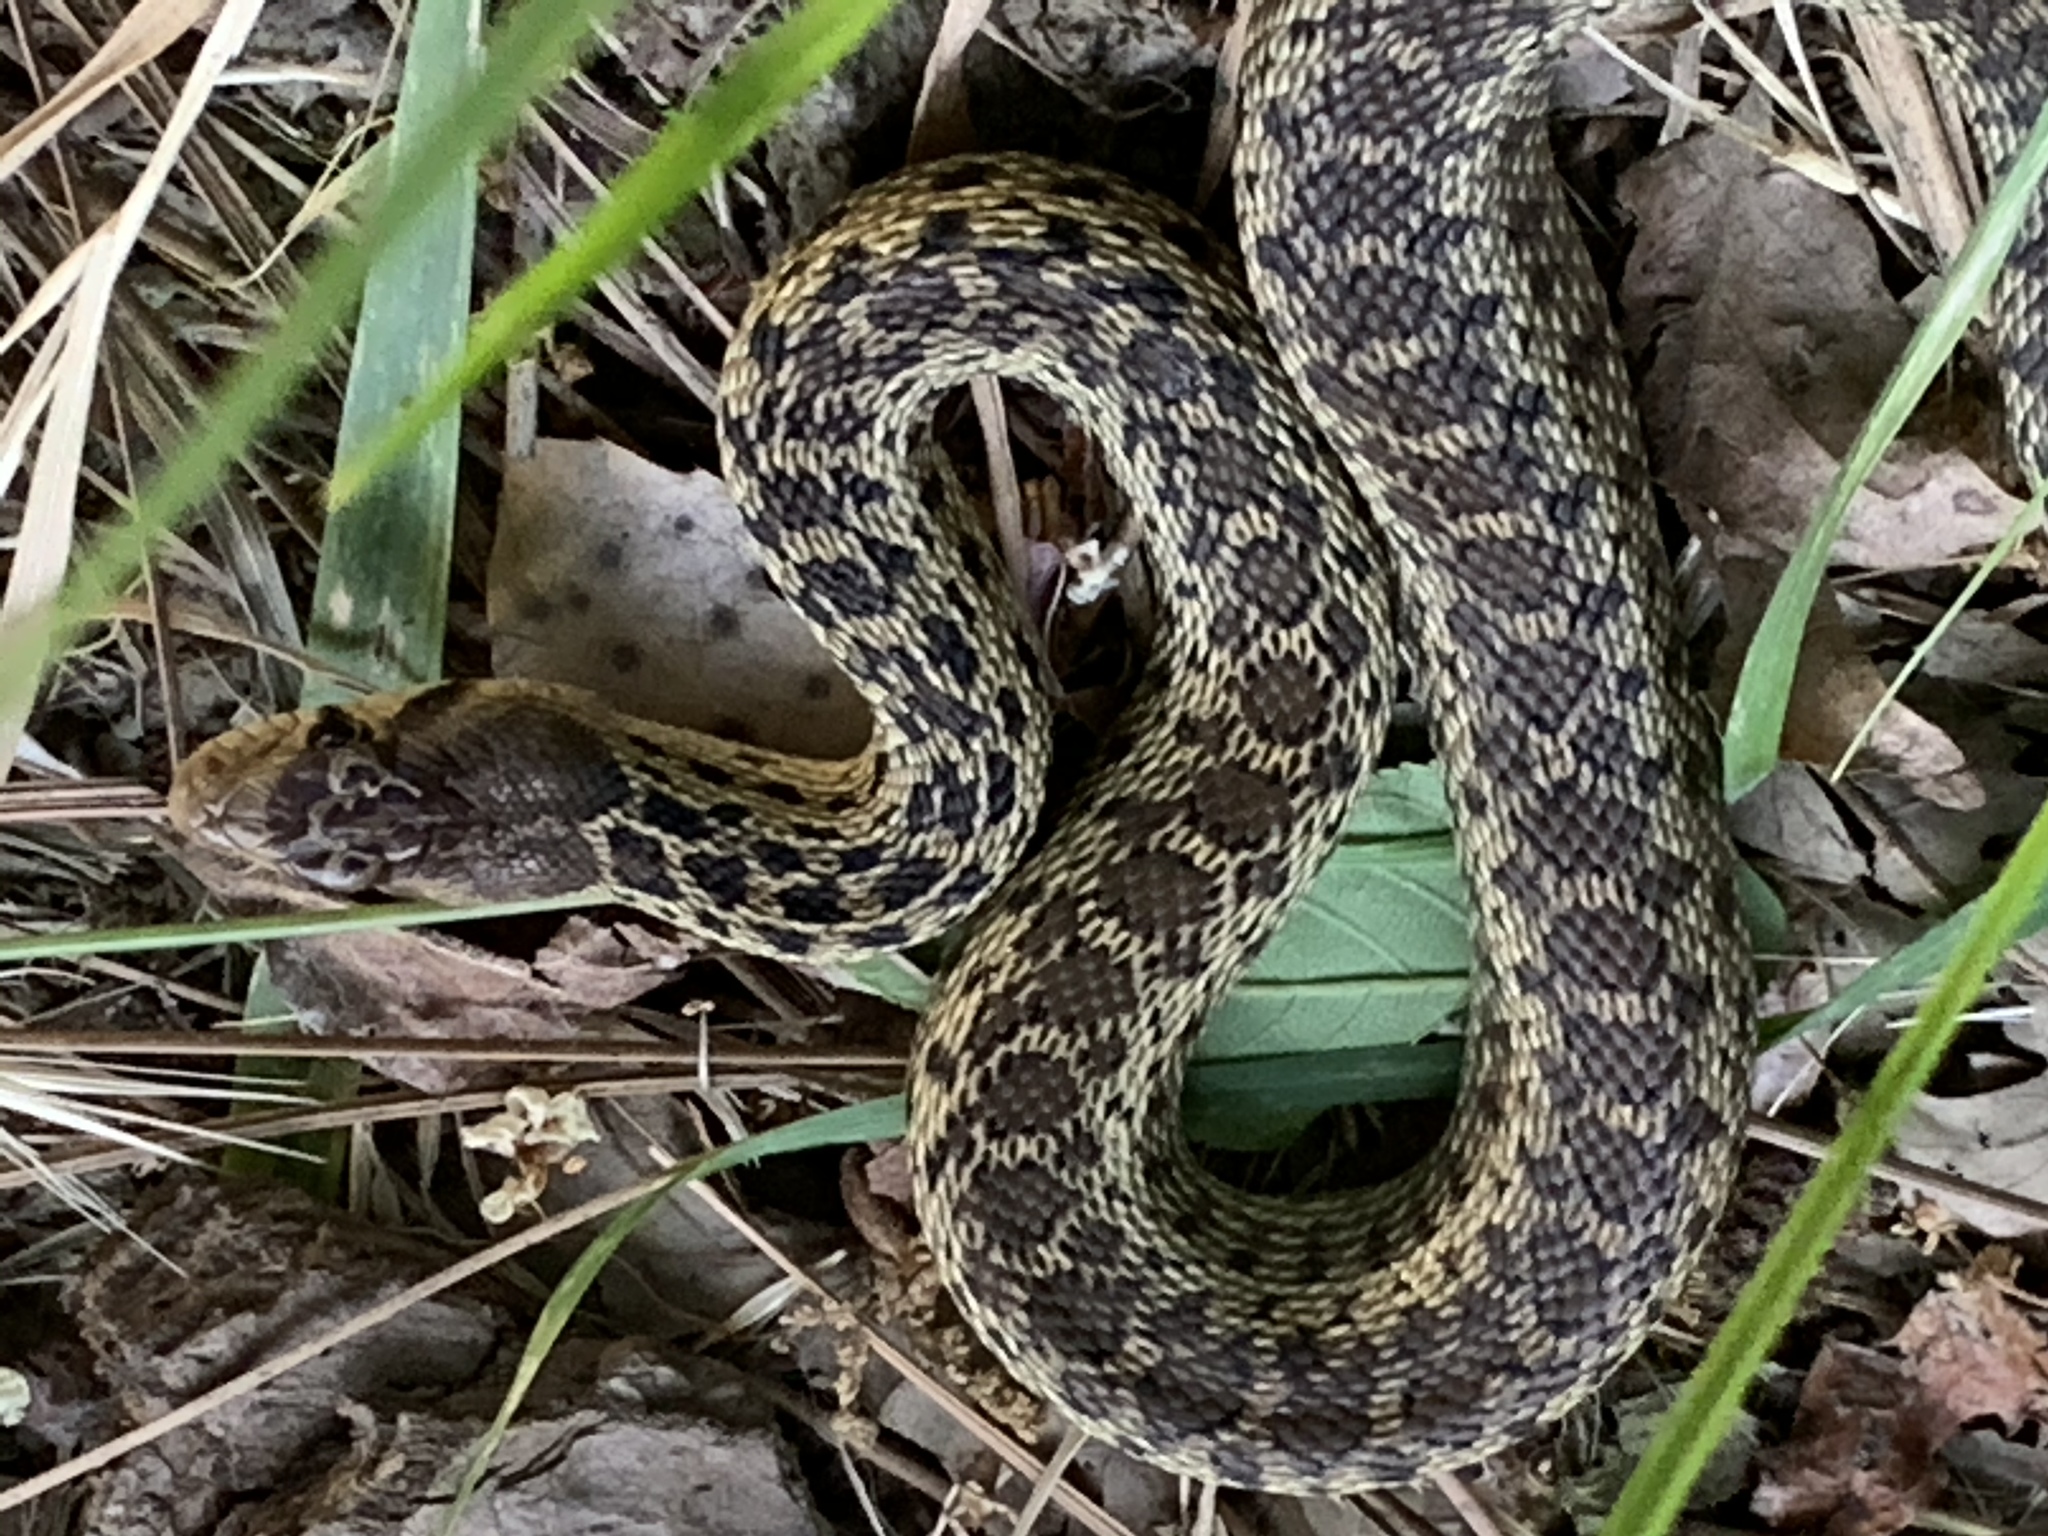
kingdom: Animalia
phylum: Chordata
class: Squamata
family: Colubridae
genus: Pituophis
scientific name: Pituophis catenifer
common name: Gopher snake
